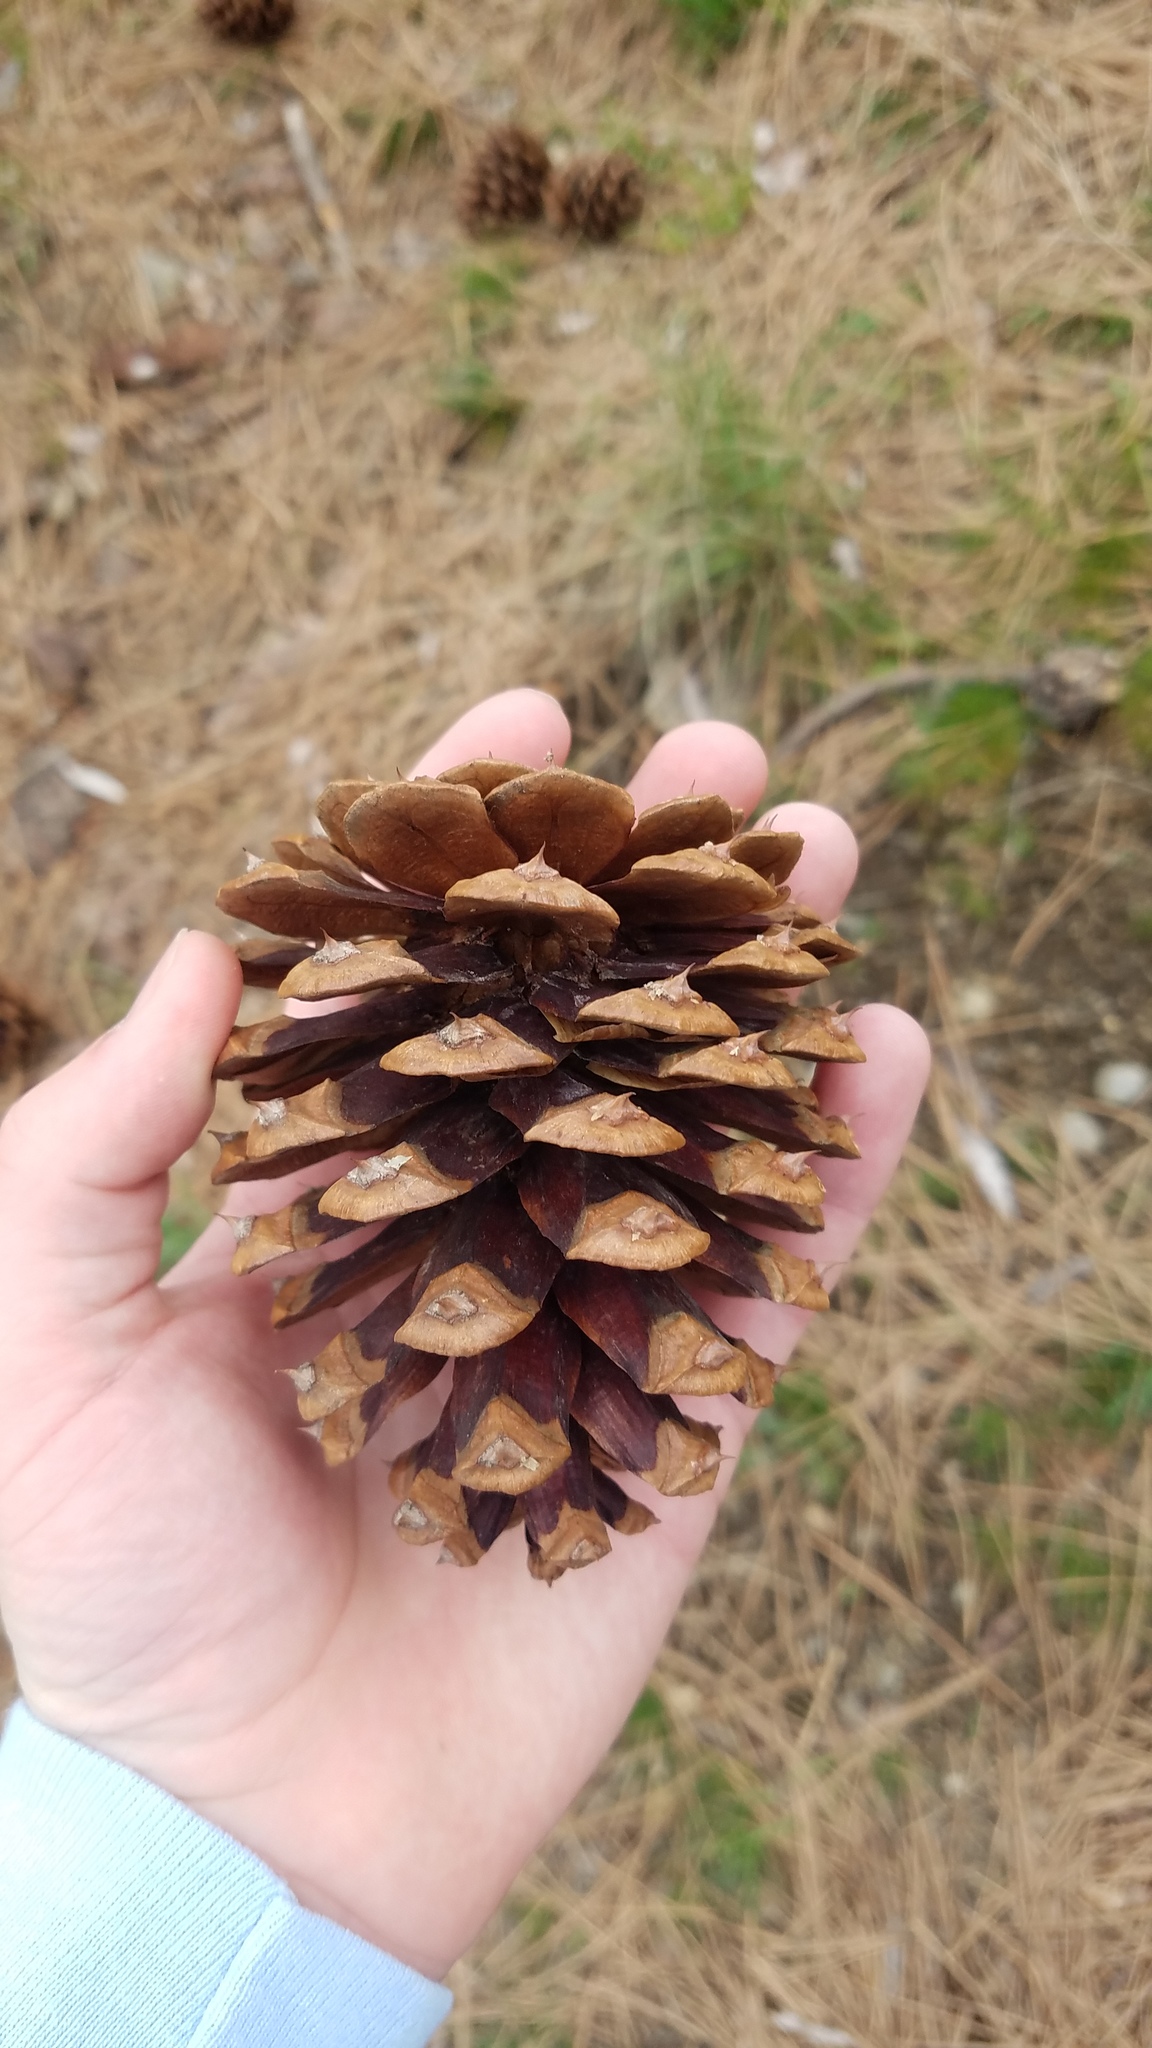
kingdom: Plantae
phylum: Tracheophyta
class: Pinopsida
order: Pinales
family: Pinaceae
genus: Pinus
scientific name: Pinus ponderosa
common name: Western yellow-pine
